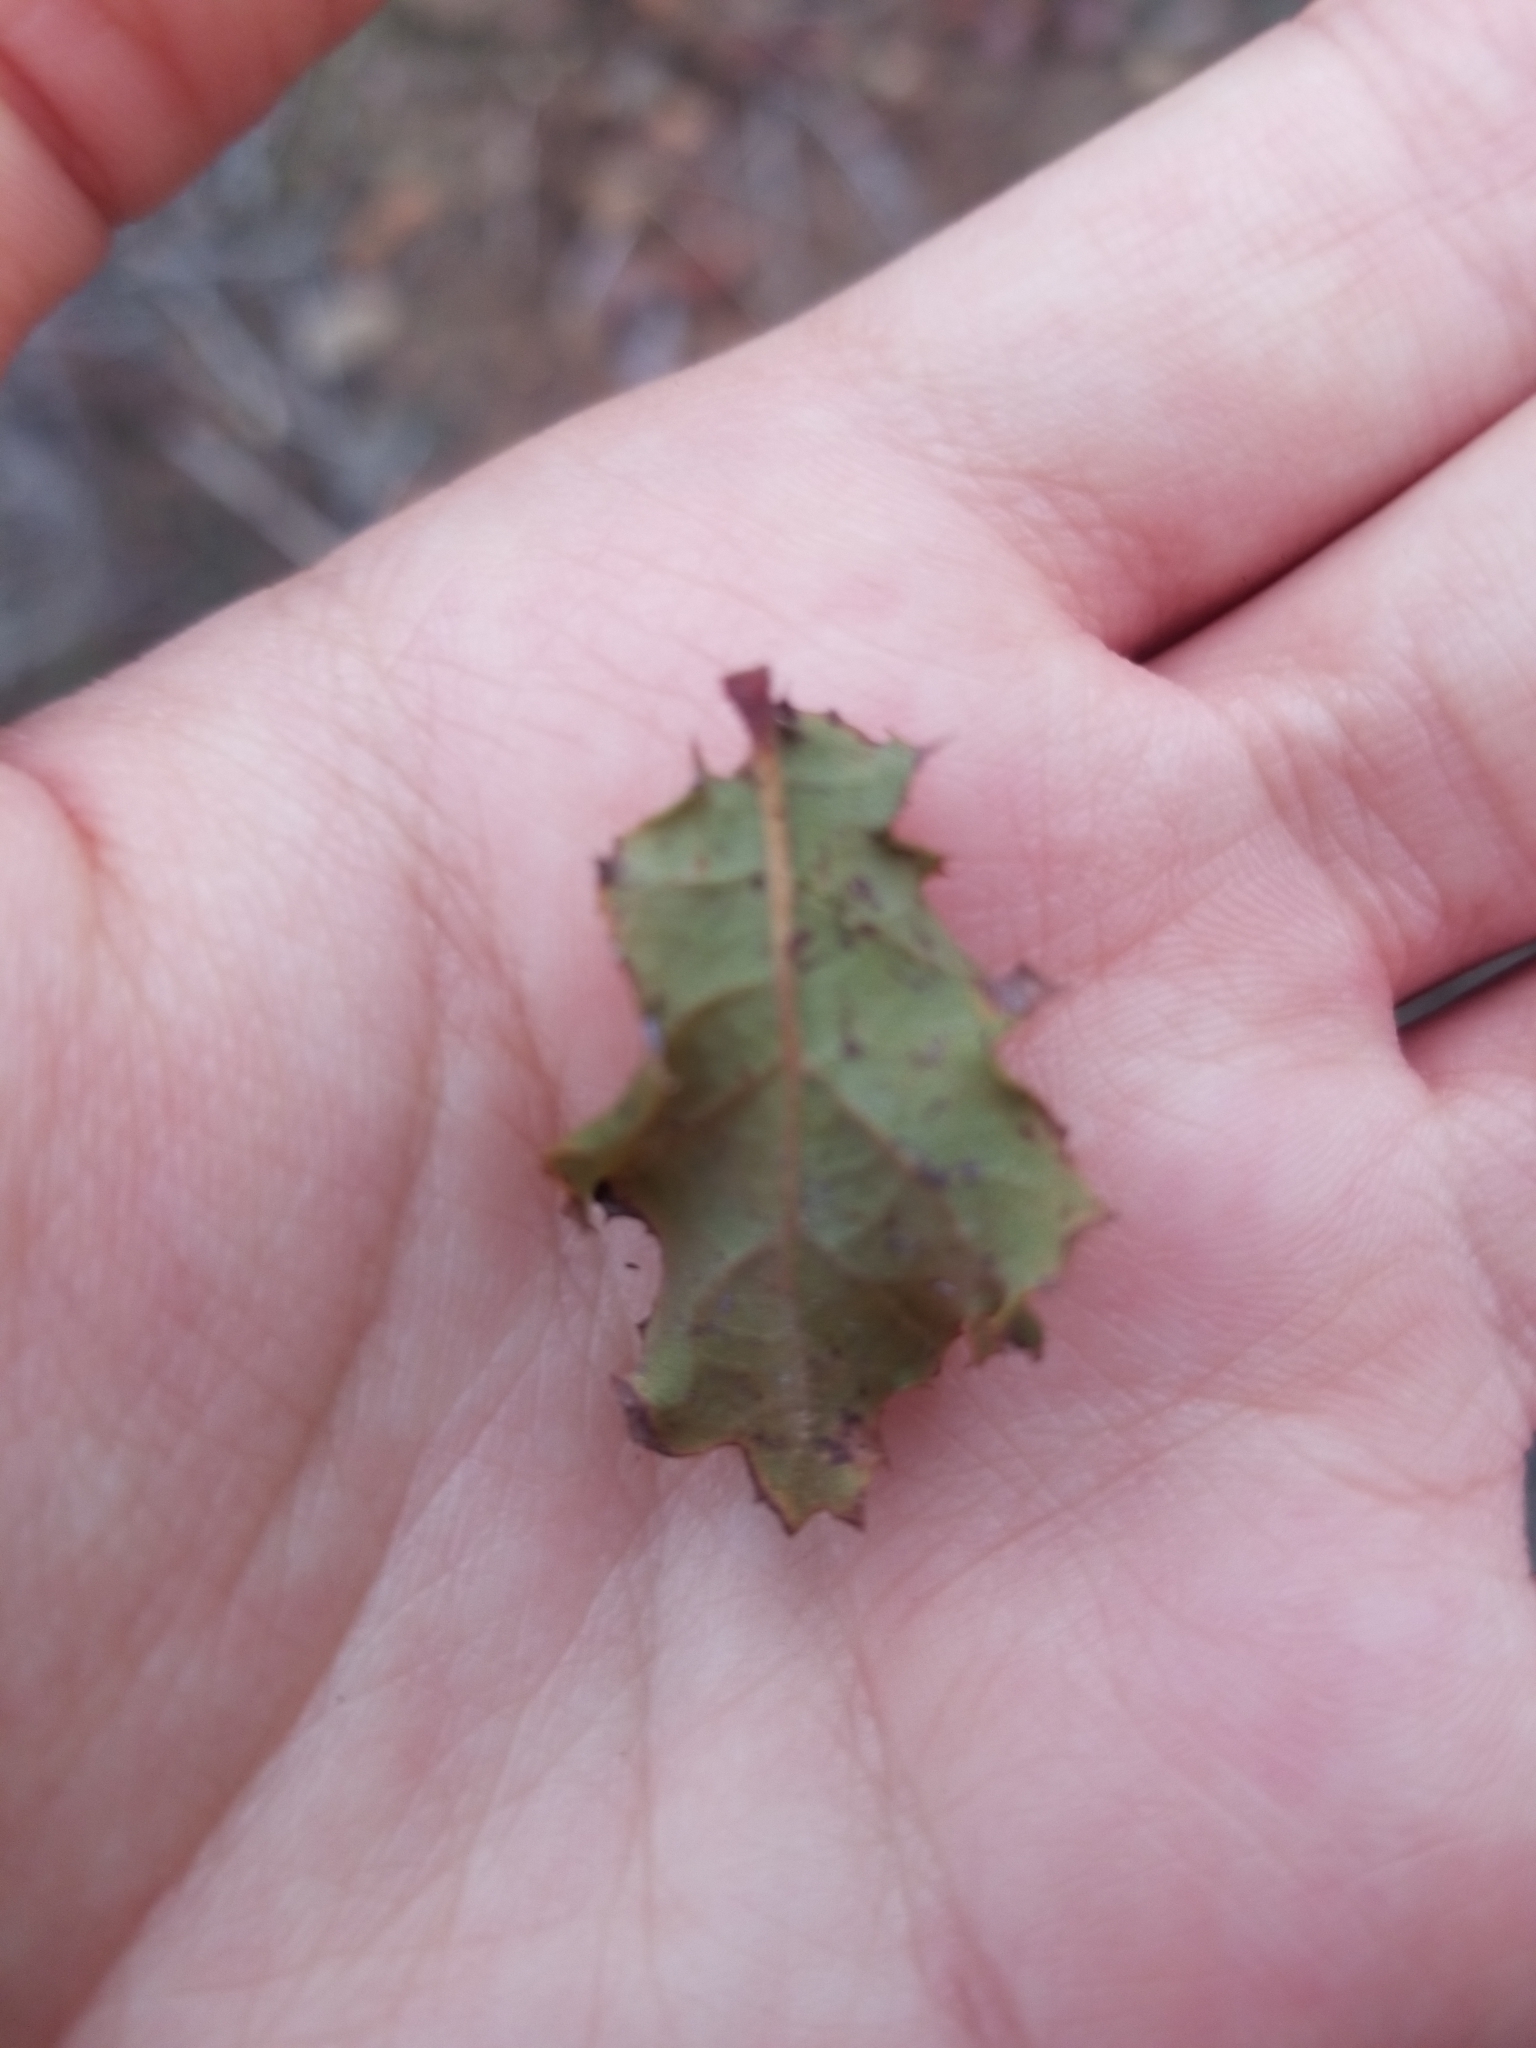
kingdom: Plantae
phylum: Tracheophyta
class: Magnoliopsida
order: Fagales
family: Fagaceae
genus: Quercus
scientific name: Quercus dumosa
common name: Coastal sage scrub oak
